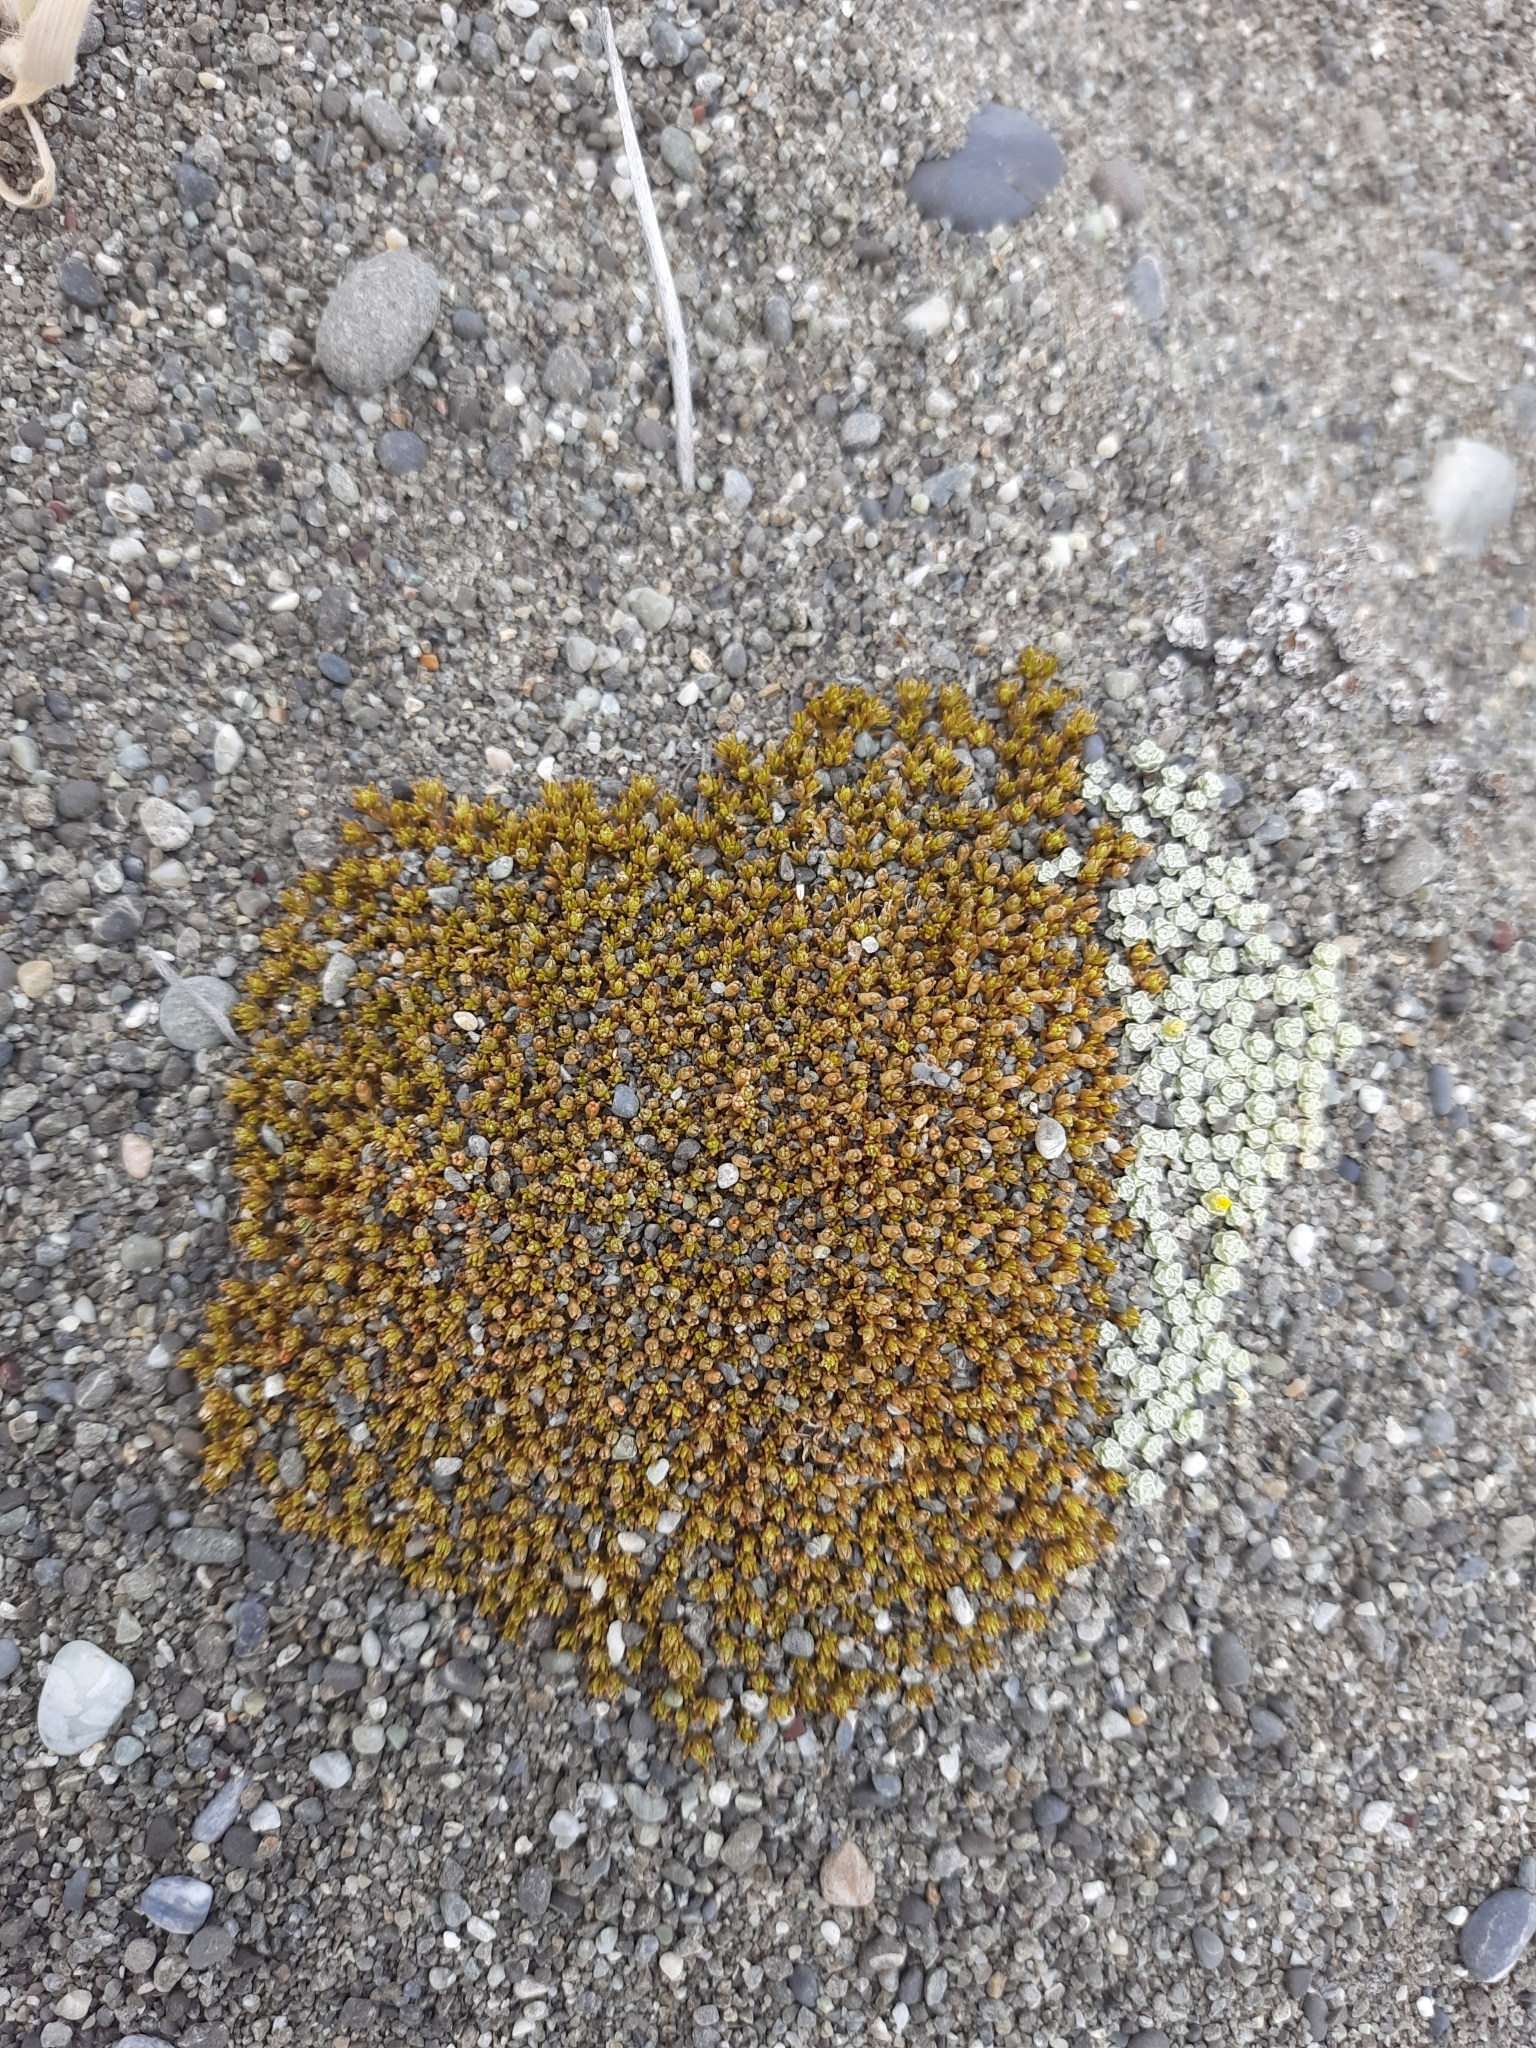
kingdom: Plantae
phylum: Tracheophyta
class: Magnoliopsida
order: Caryophyllales
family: Caryophyllaceae
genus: Scleranthus
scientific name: Scleranthus uniflorus
